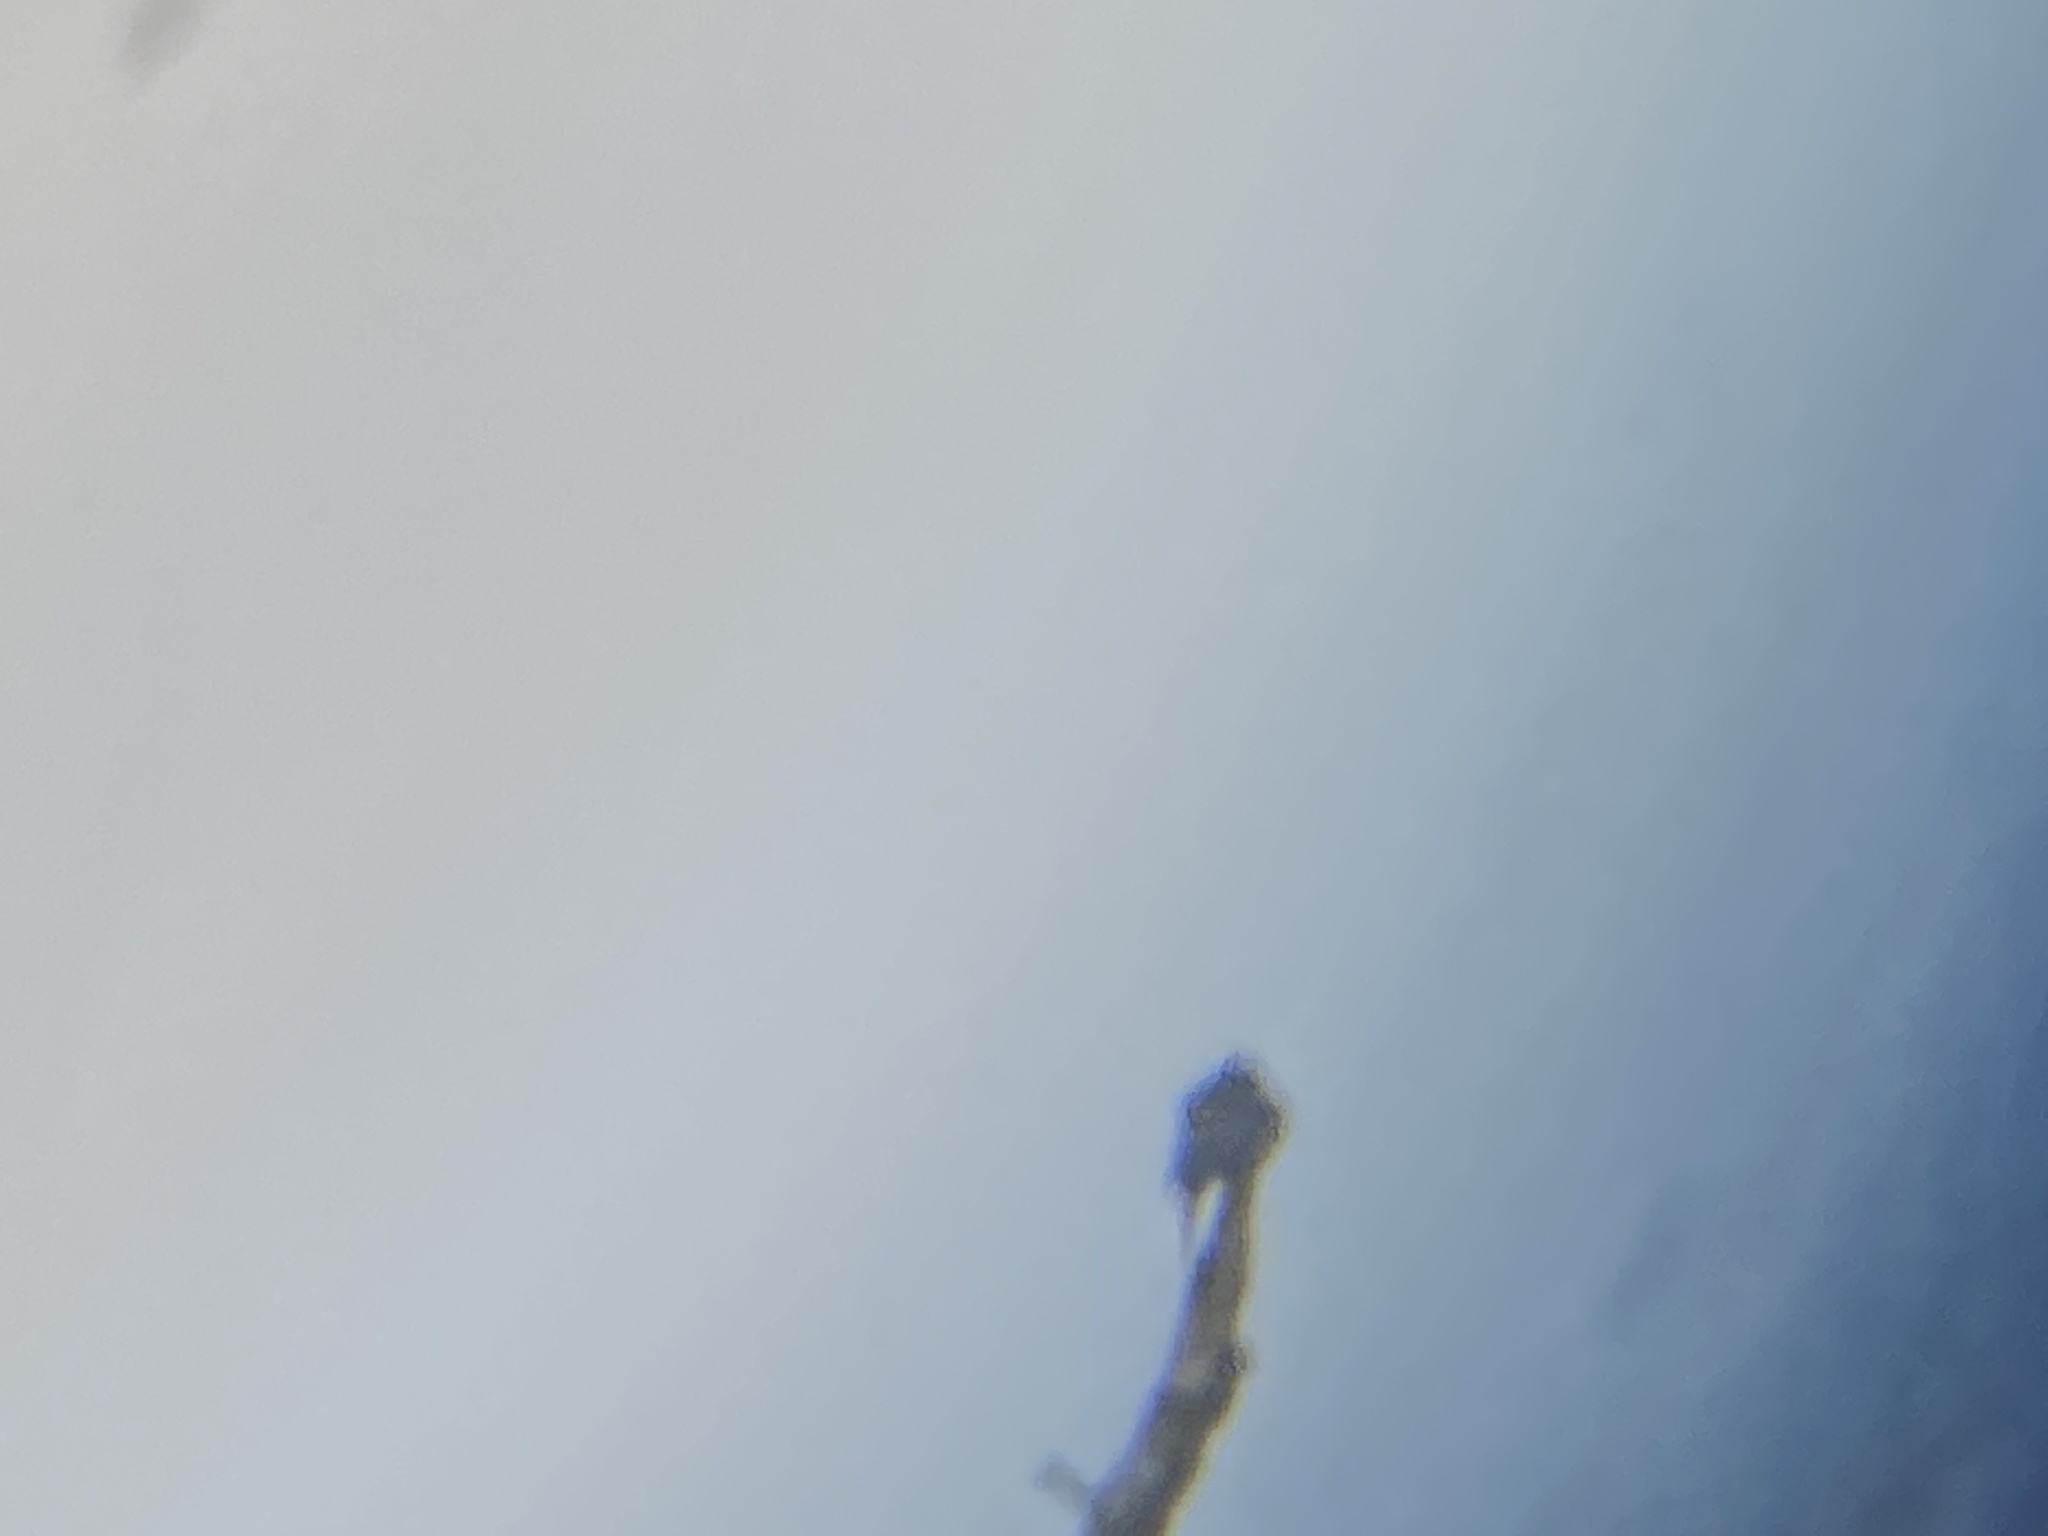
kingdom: Animalia
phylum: Chordata
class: Aves
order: Passeriformes
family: Cardinalidae
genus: Passerina
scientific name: Passerina cyanea
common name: Indigo bunting
